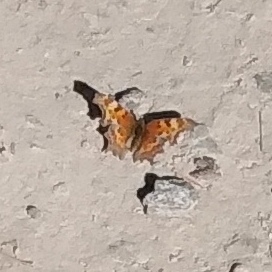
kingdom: Animalia
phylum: Arthropoda
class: Insecta
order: Lepidoptera
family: Nymphalidae
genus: Polygonia
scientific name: Polygonia gracilis
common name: Hoary comma
